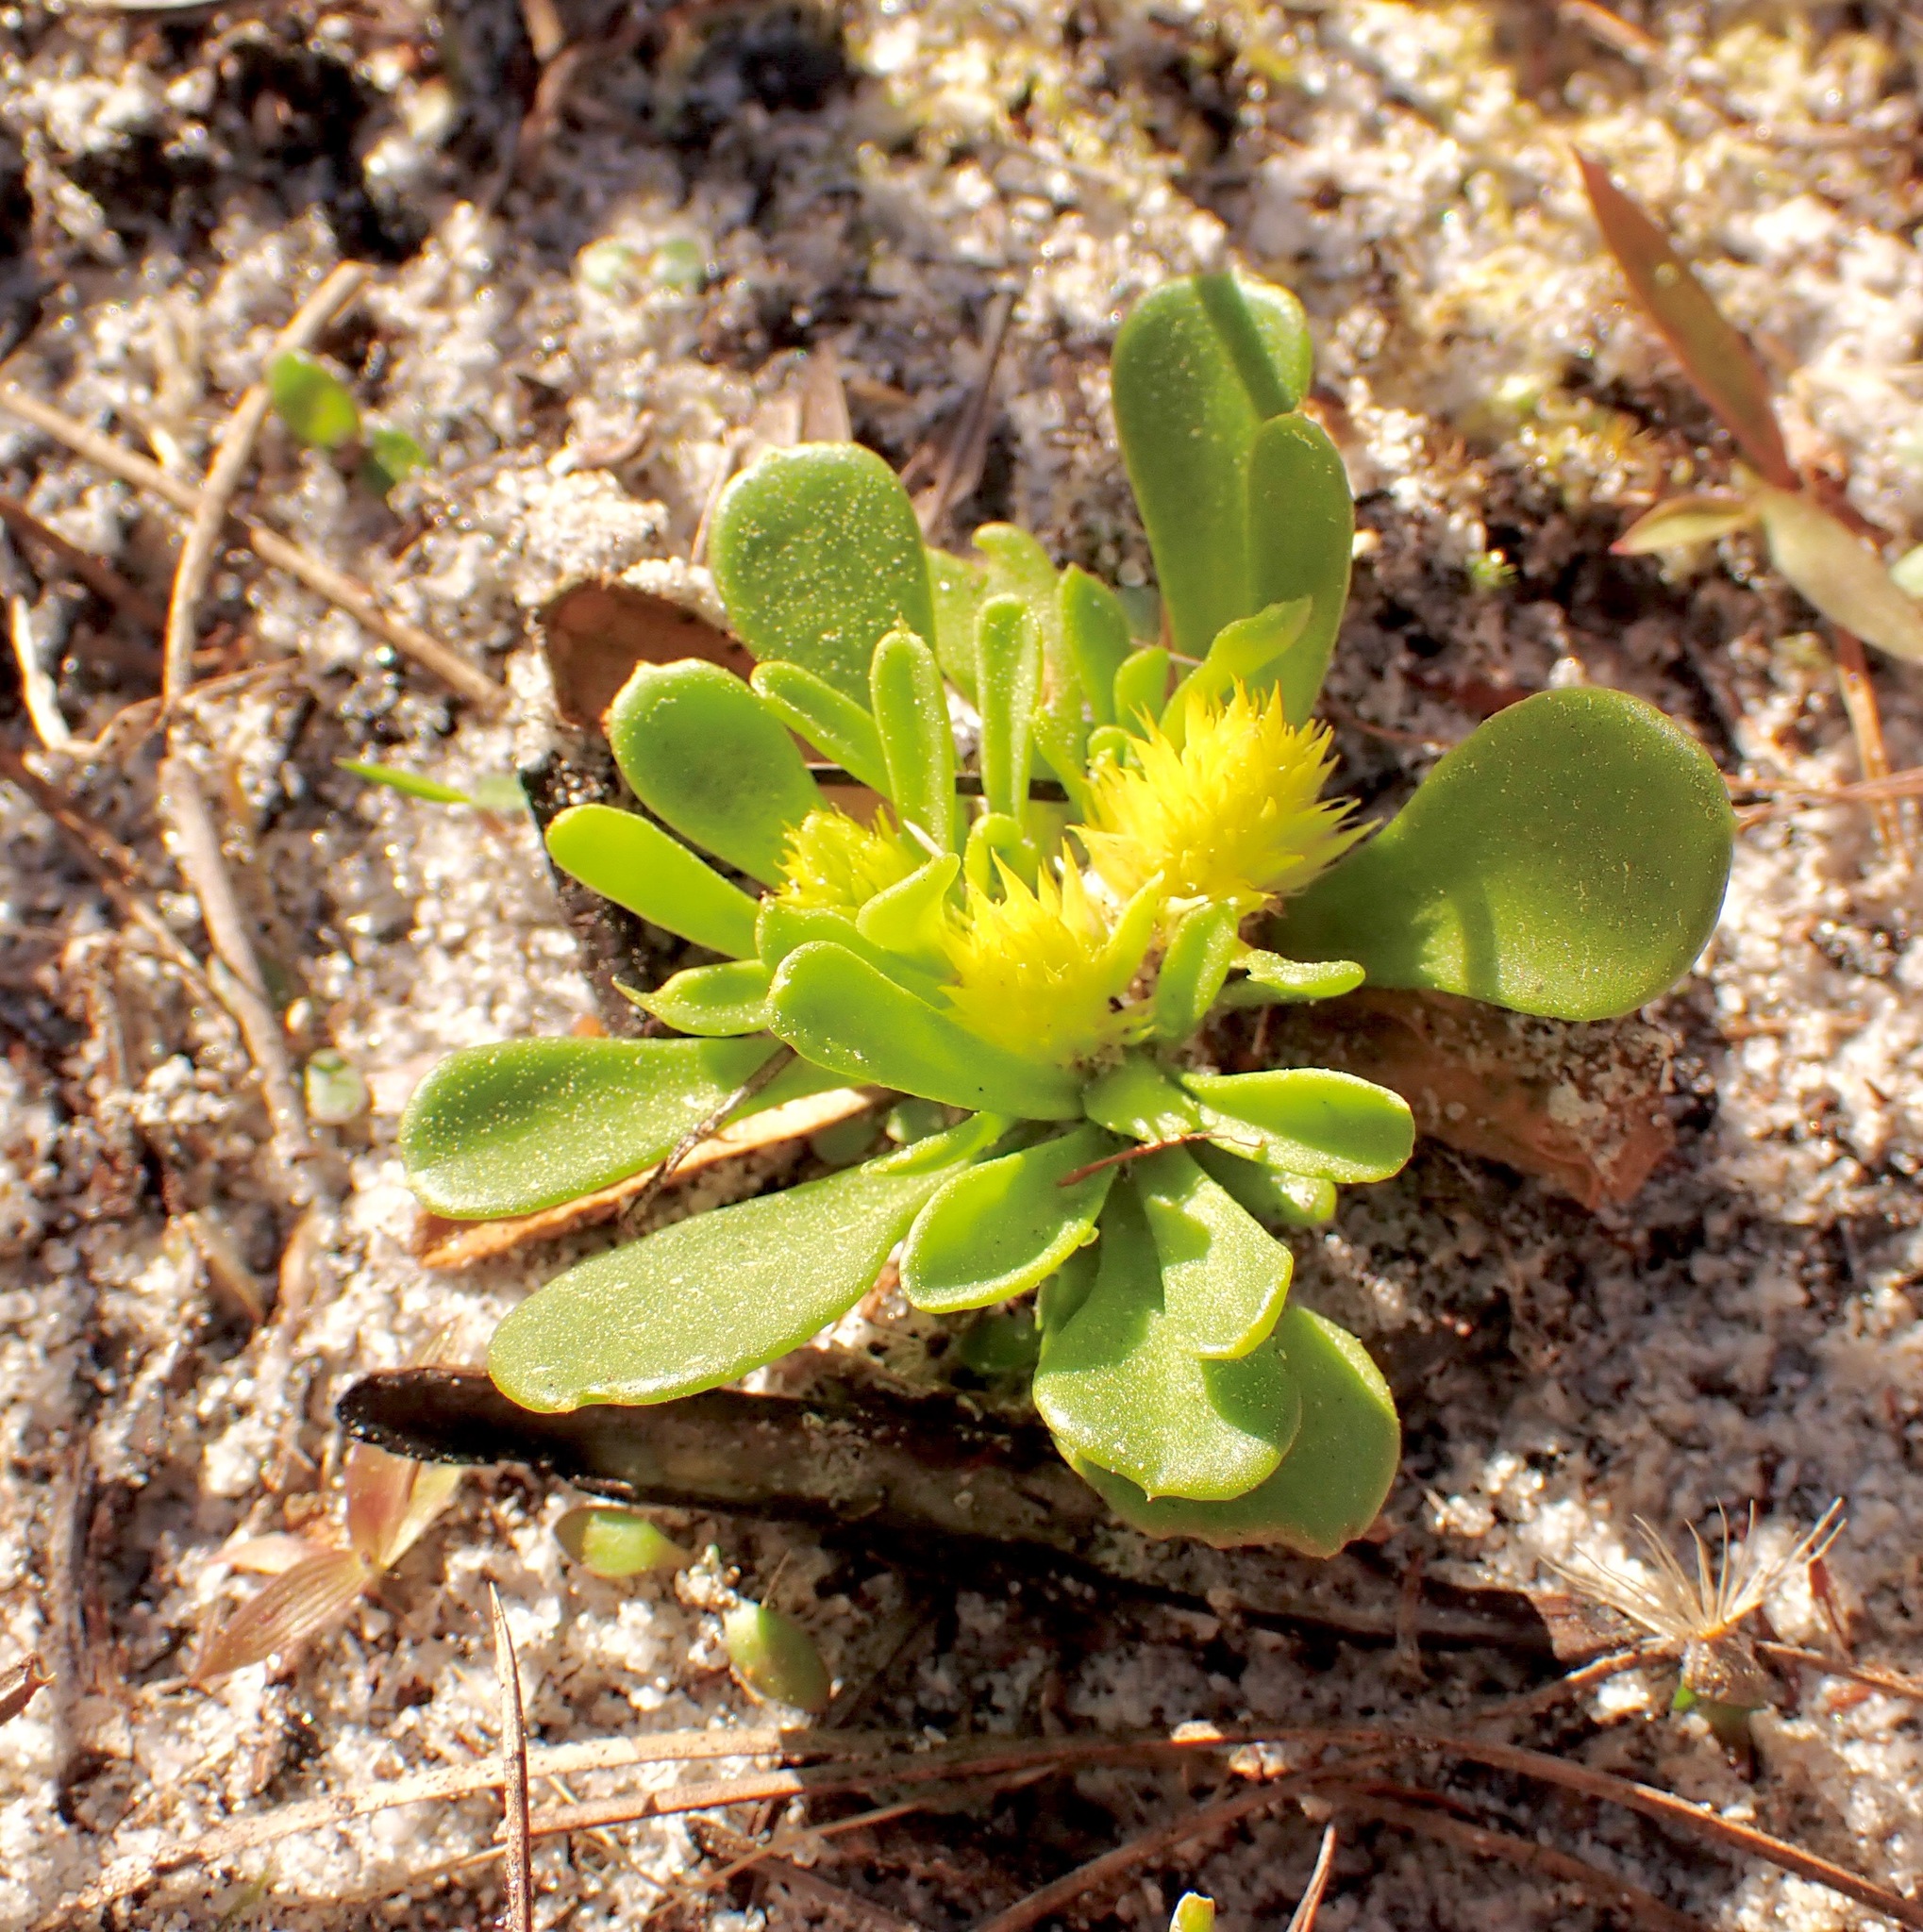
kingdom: Plantae
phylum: Tracheophyta
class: Magnoliopsida
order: Fabales
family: Polygalaceae
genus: Polygala
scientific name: Polygala nana
